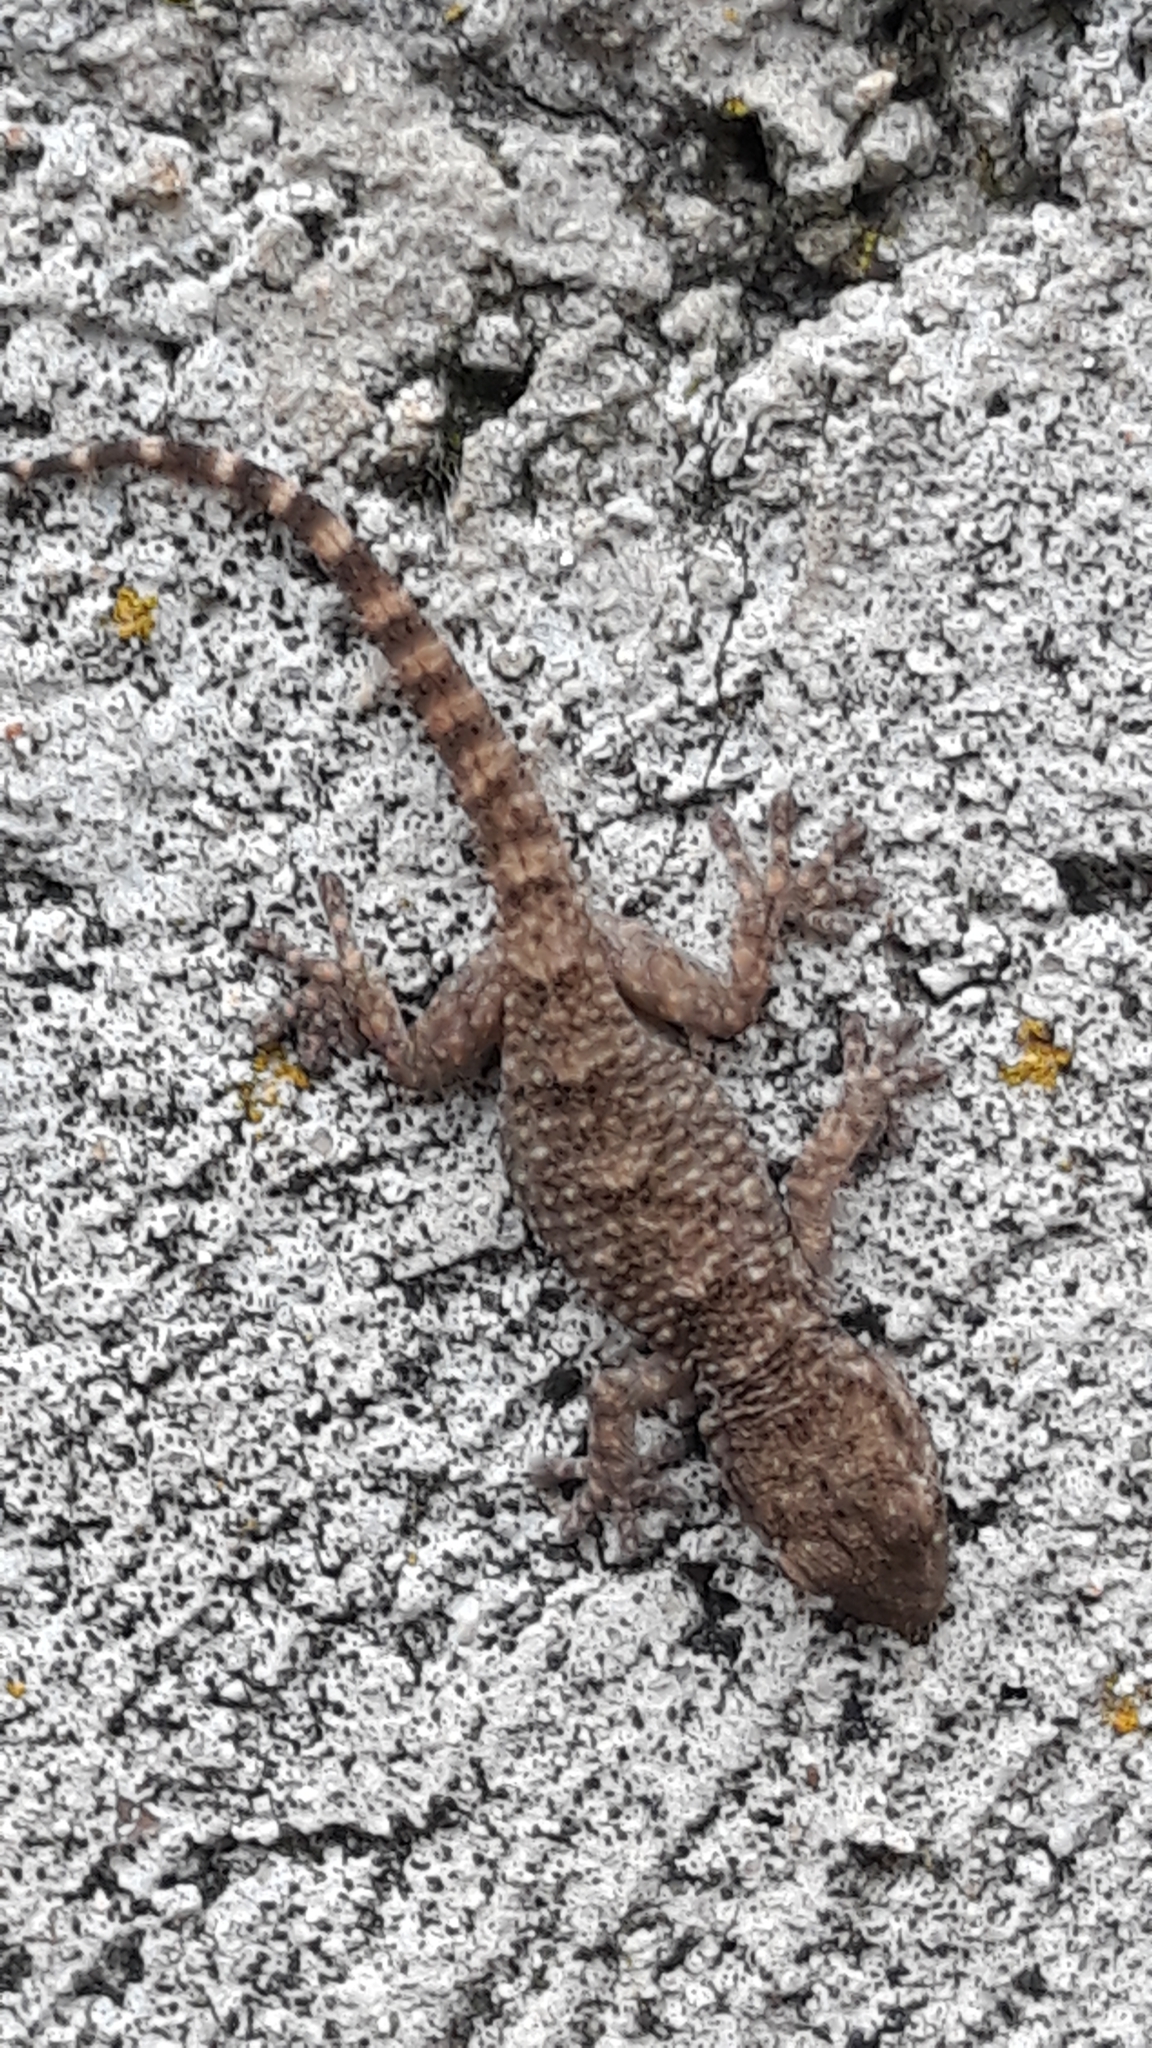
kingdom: Animalia
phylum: Chordata
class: Squamata
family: Phyllodactylidae
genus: Tarentola
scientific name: Tarentola mauritanica
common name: Moorish gecko
